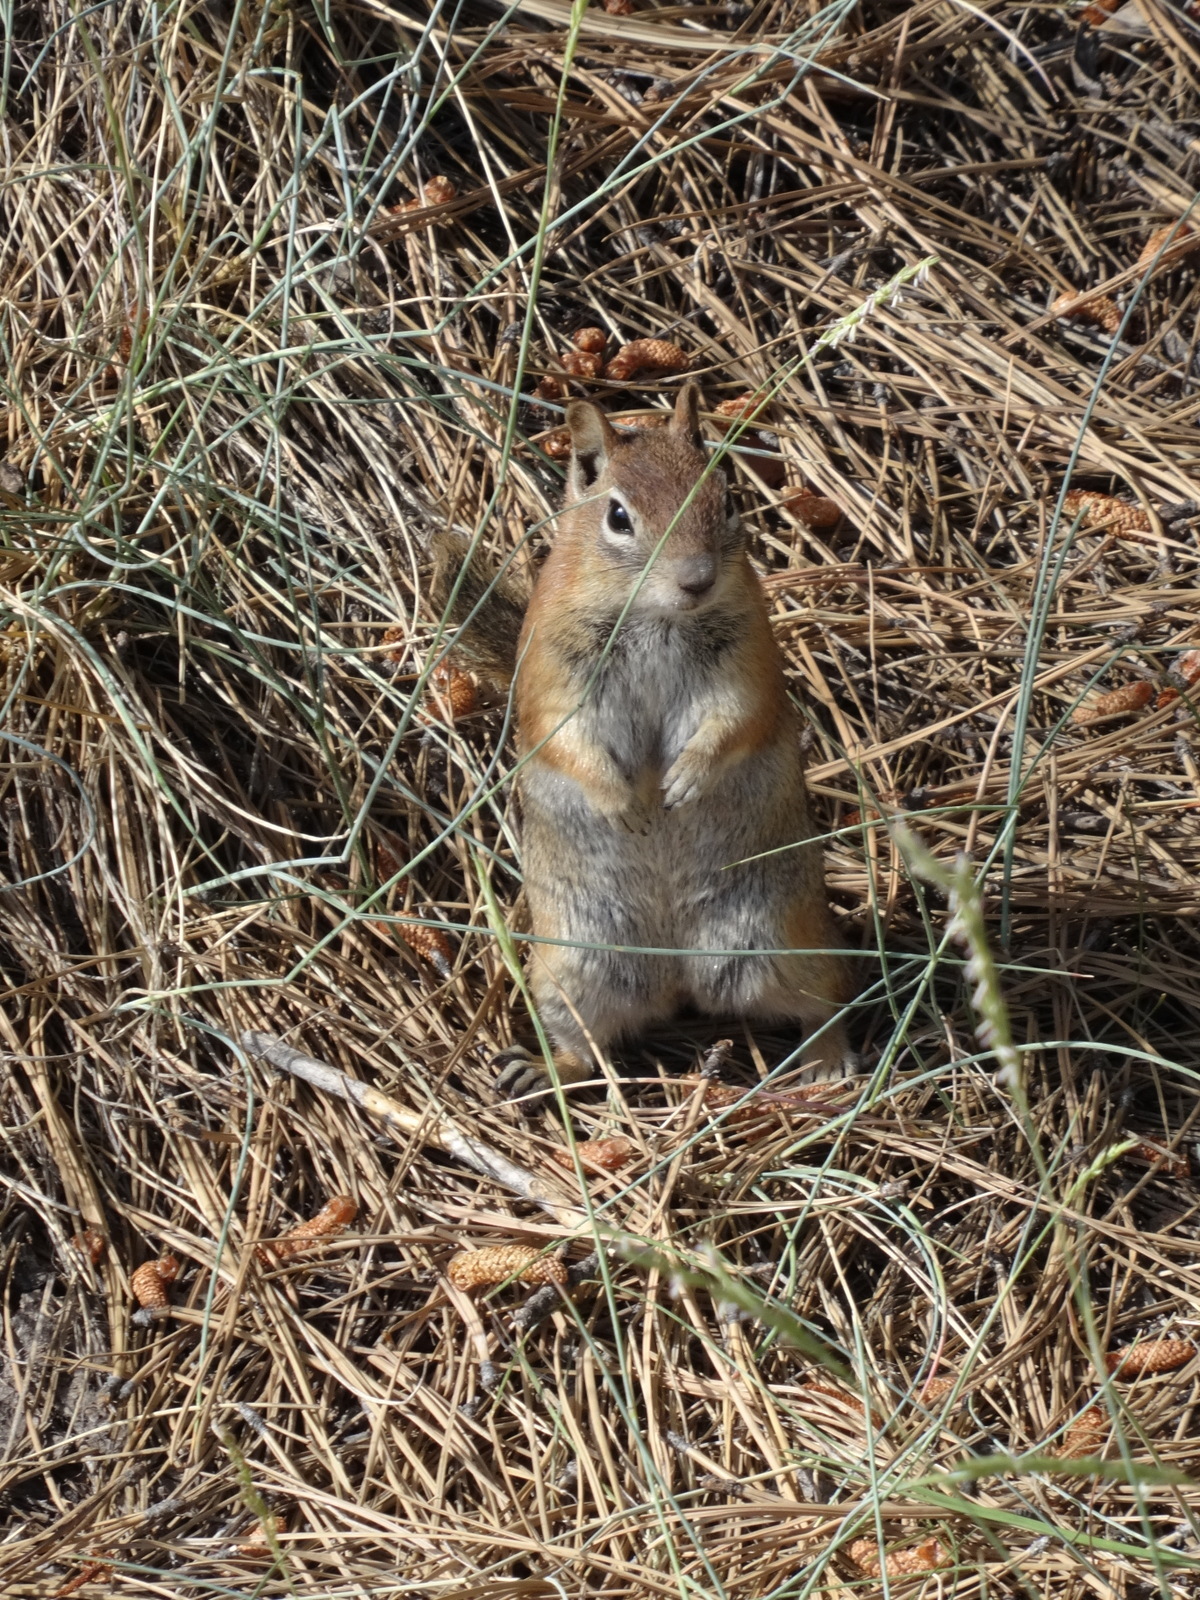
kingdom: Animalia
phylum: Chordata
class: Mammalia
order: Rodentia
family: Sciuridae
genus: Callospermophilus
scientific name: Callospermophilus lateralis
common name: Golden-mantled ground squirrel
